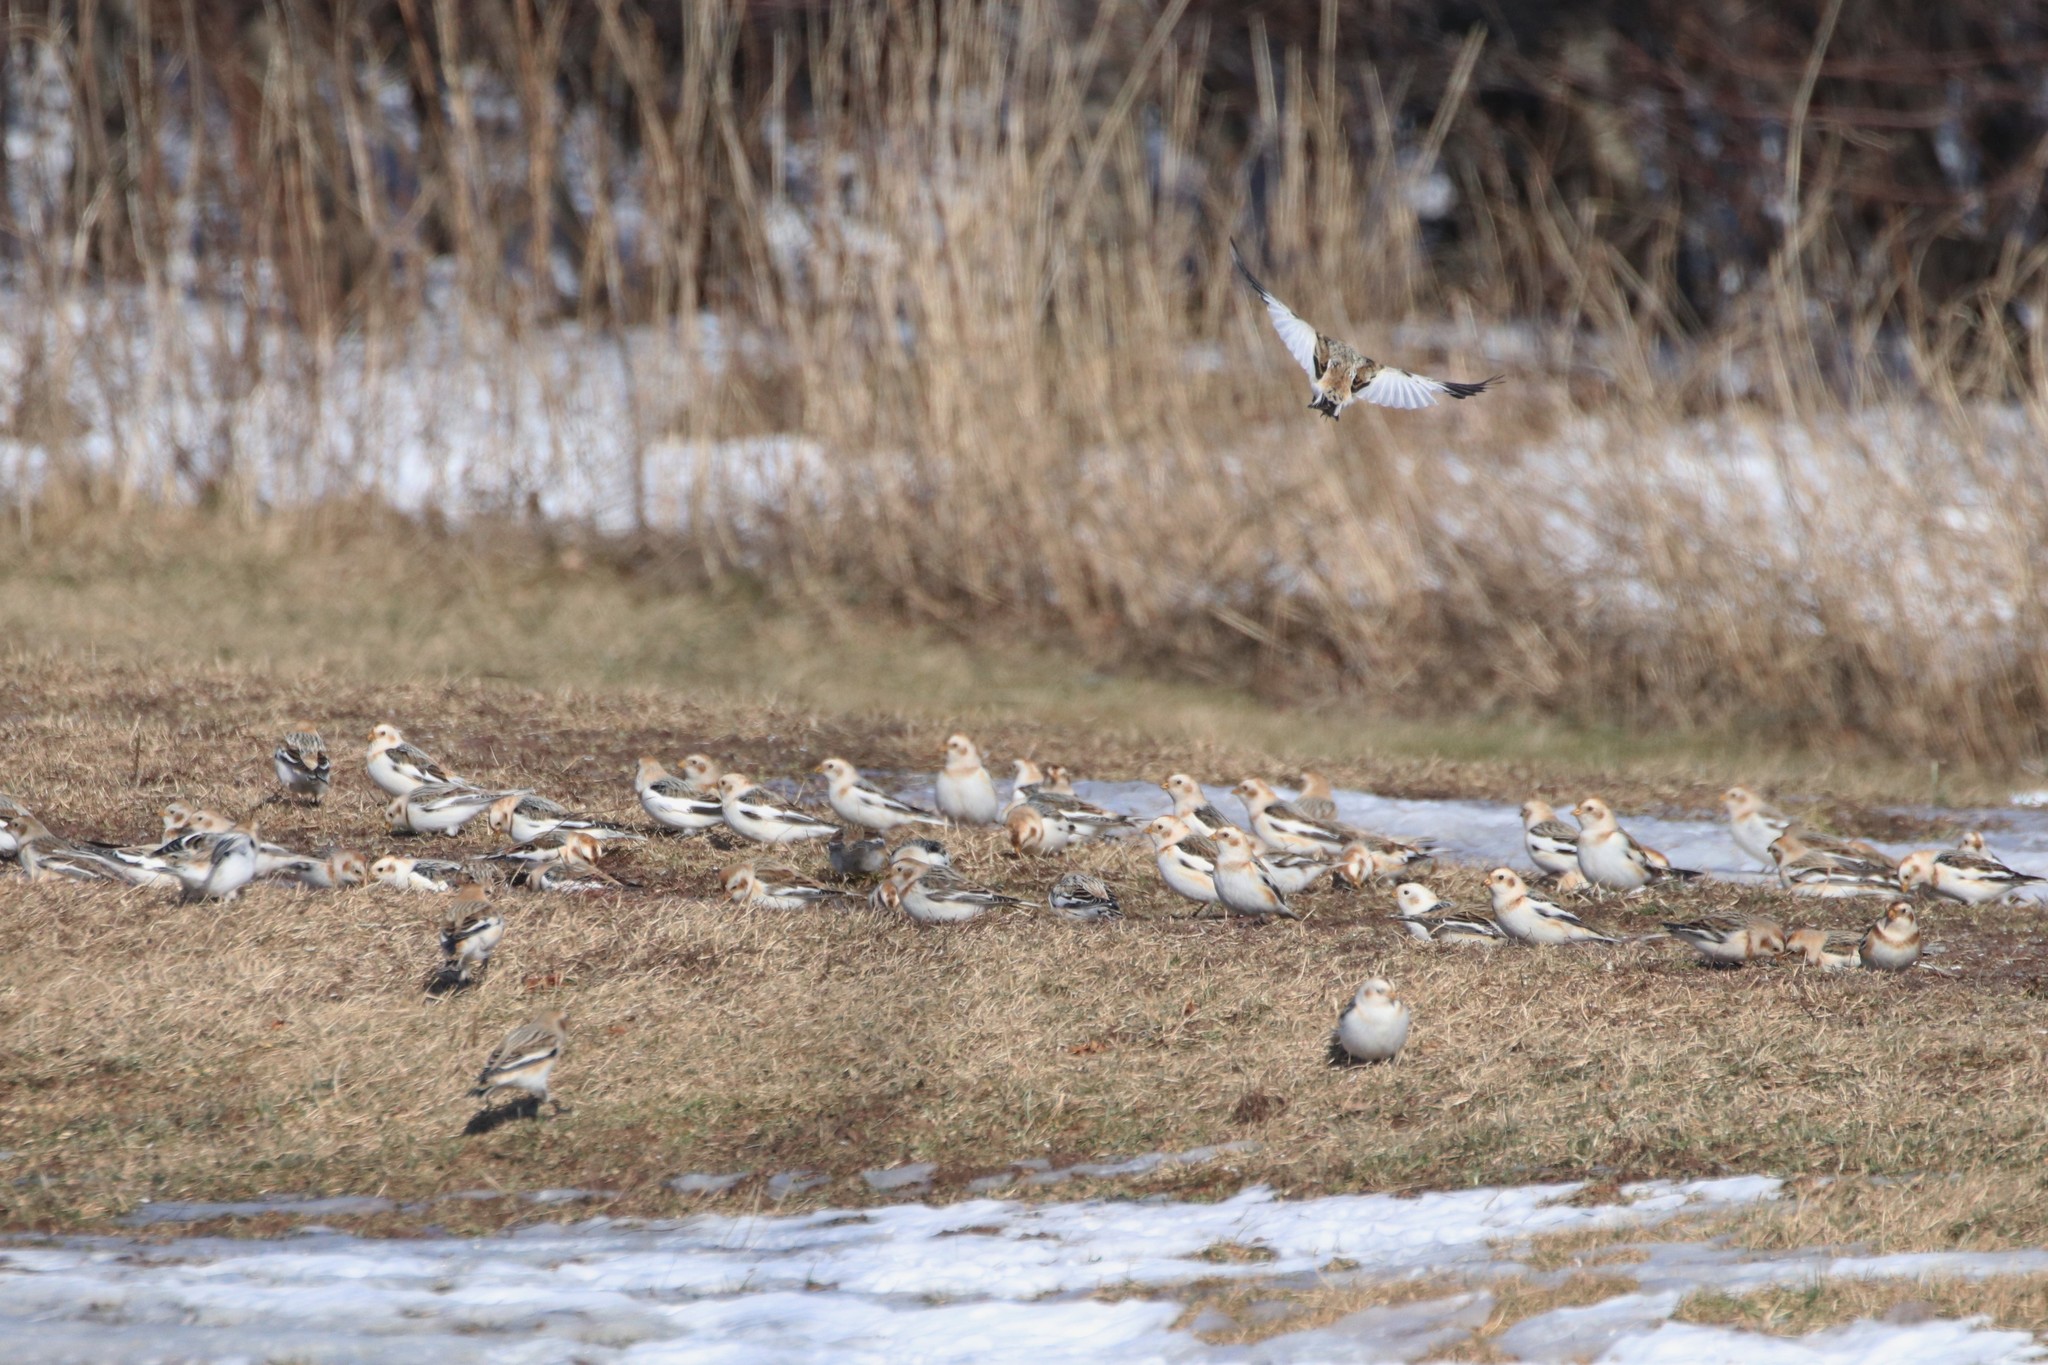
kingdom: Animalia
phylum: Chordata
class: Aves
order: Passeriformes
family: Calcariidae
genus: Plectrophenax
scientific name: Plectrophenax nivalis
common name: Snow bunting
